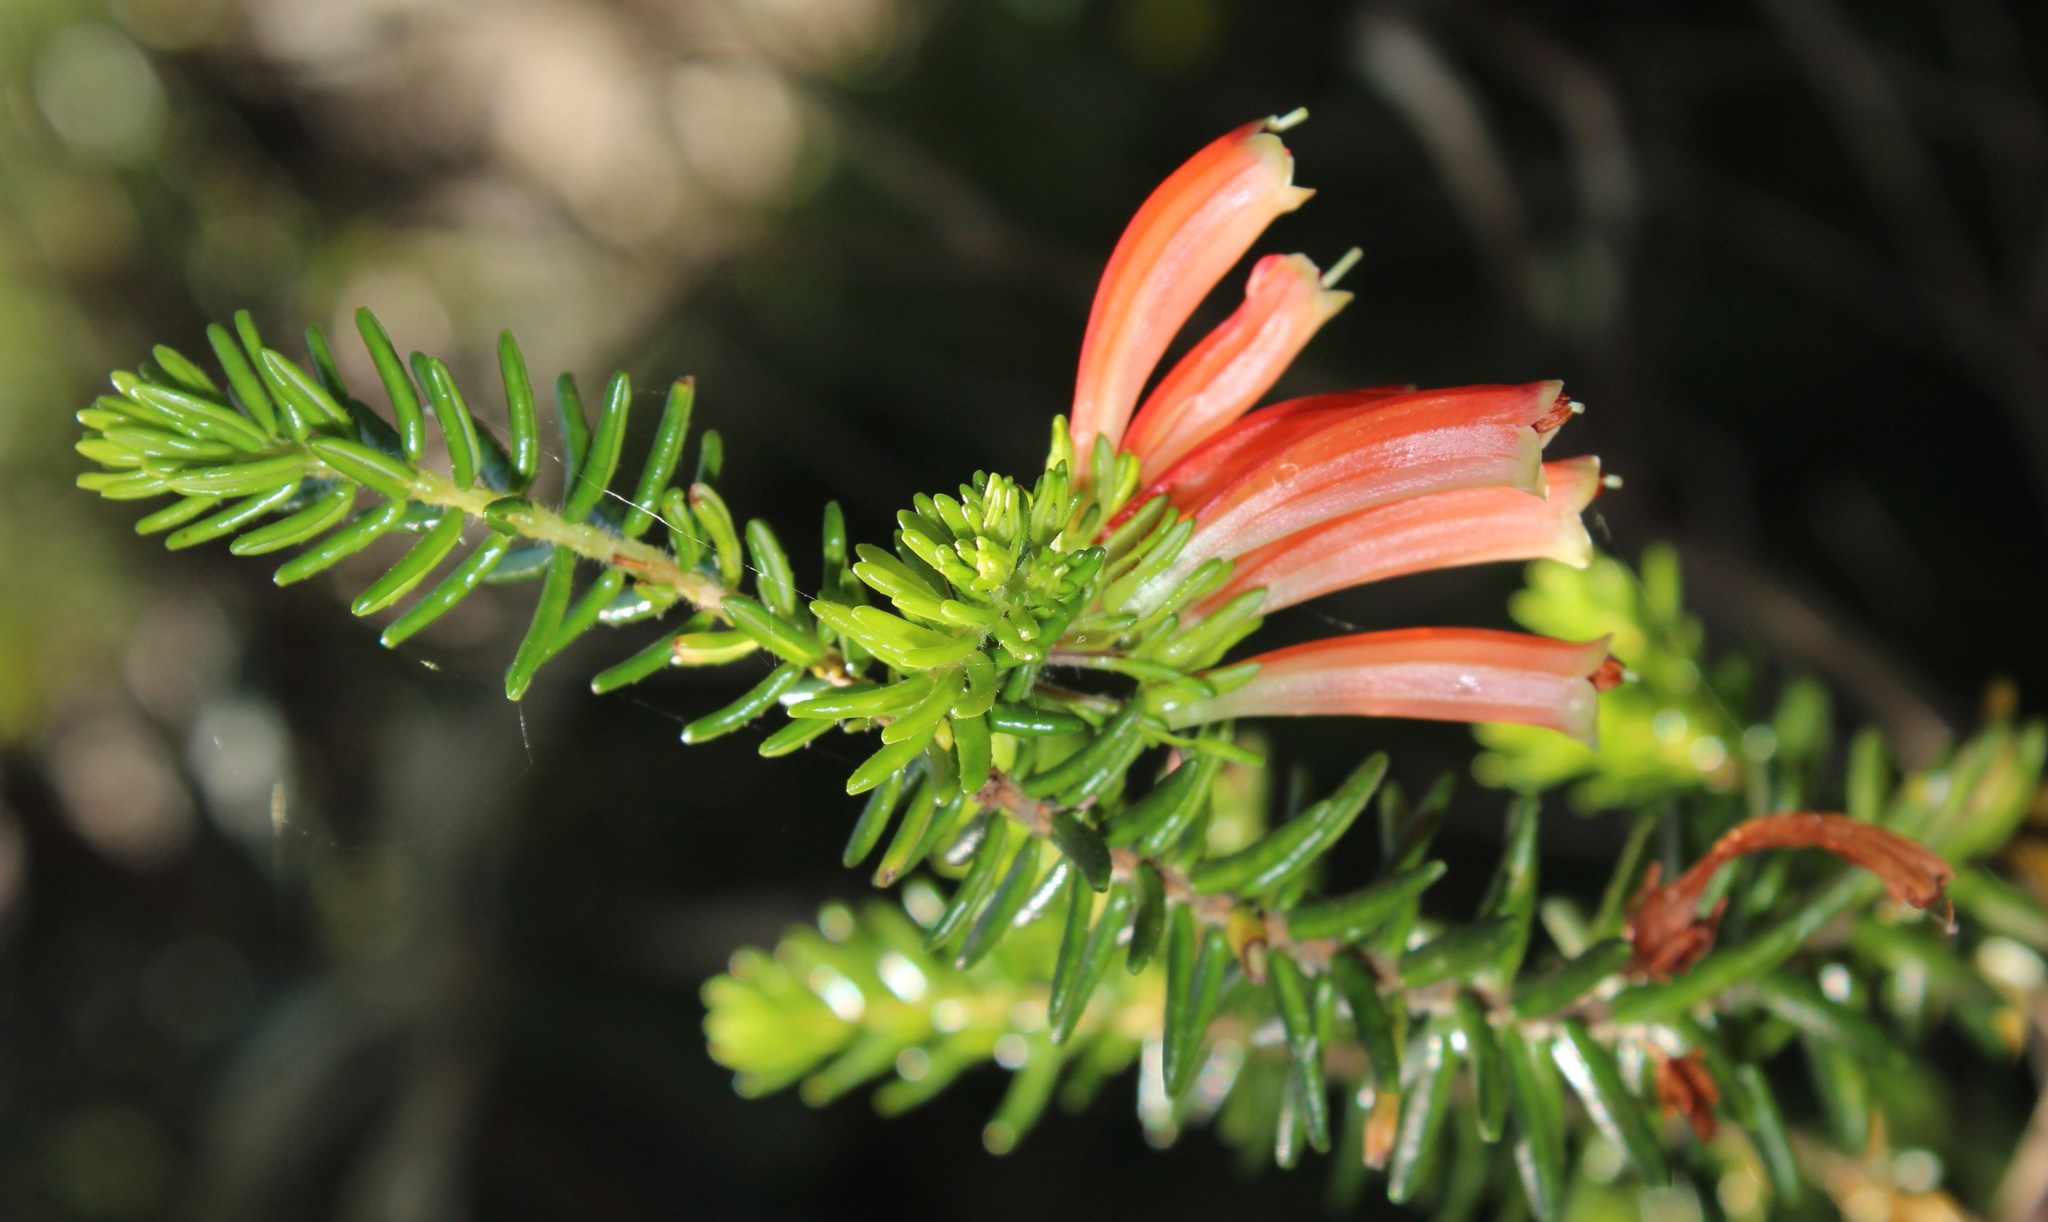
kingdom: Plantae
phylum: Tracheophyta
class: Magnoliopsida
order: Ericales
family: Ericaceae
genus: Erica
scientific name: Erica glandulosa
